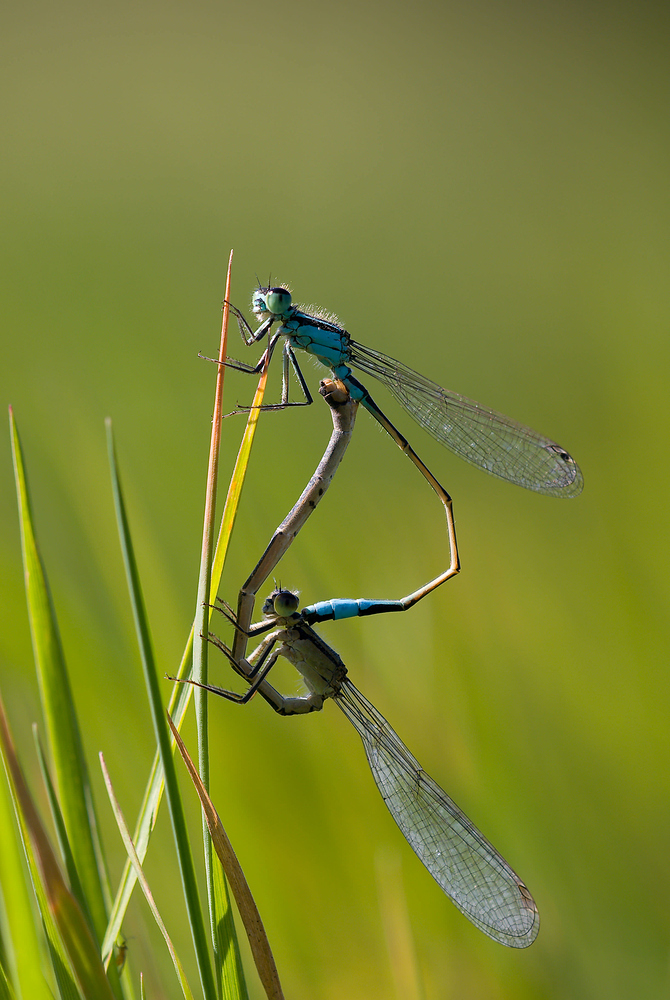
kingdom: Animalia
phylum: Arthropoda
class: Insecta
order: Odonata
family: Coenagrionidae
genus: Ischnura
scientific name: Ischnura elegans
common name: Blue-tailed damselfly
